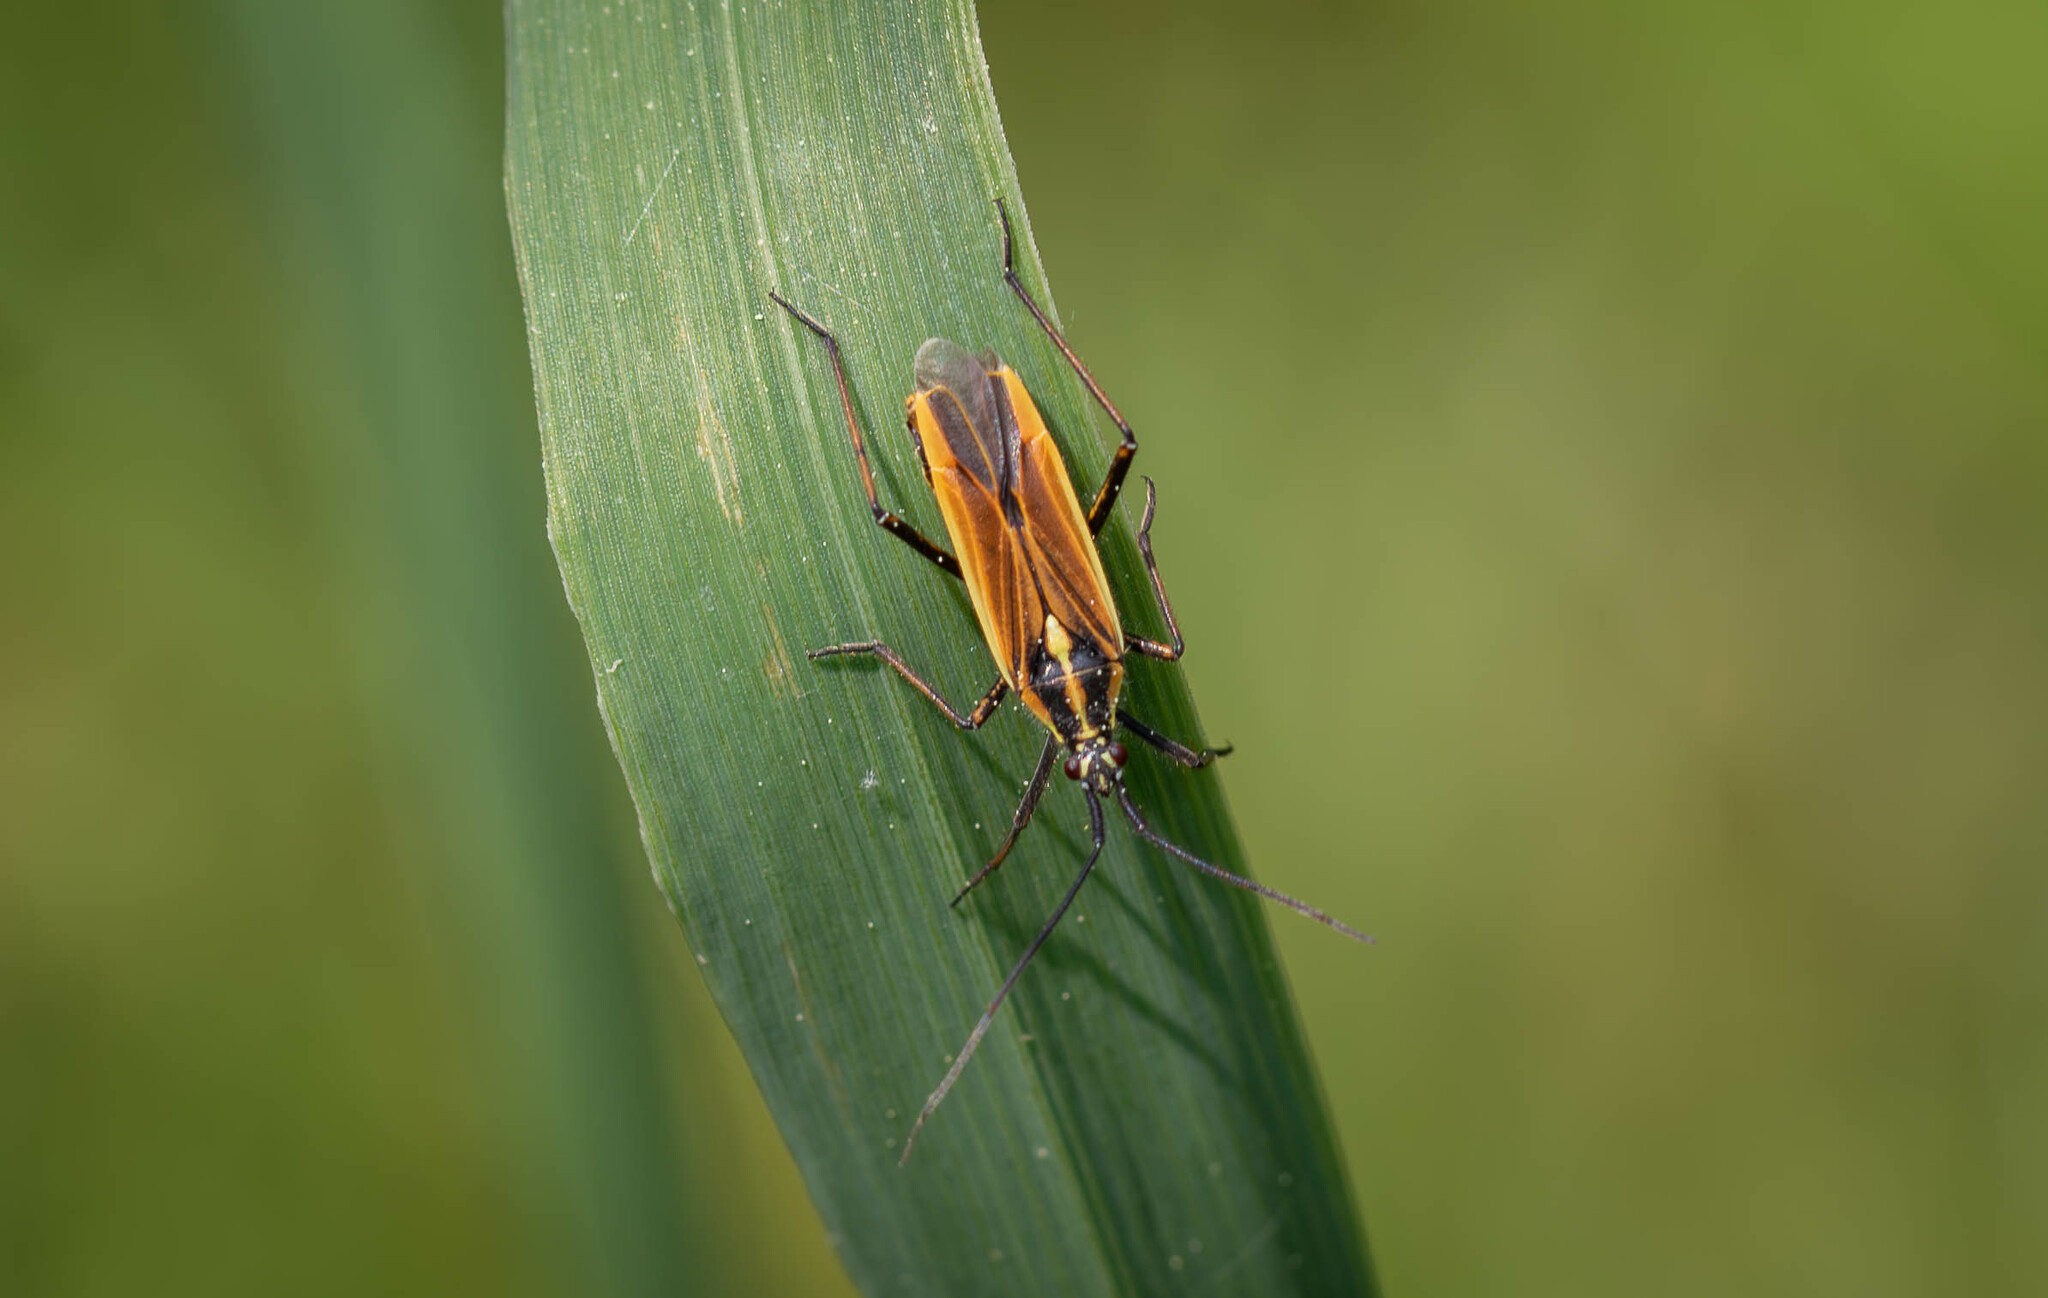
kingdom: Animalia
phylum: Arthropoda
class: Insecta
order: Hemiptera
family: Miridae
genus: Leptopterna
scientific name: Leptopterna dolabrata
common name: Meadow plant bug
